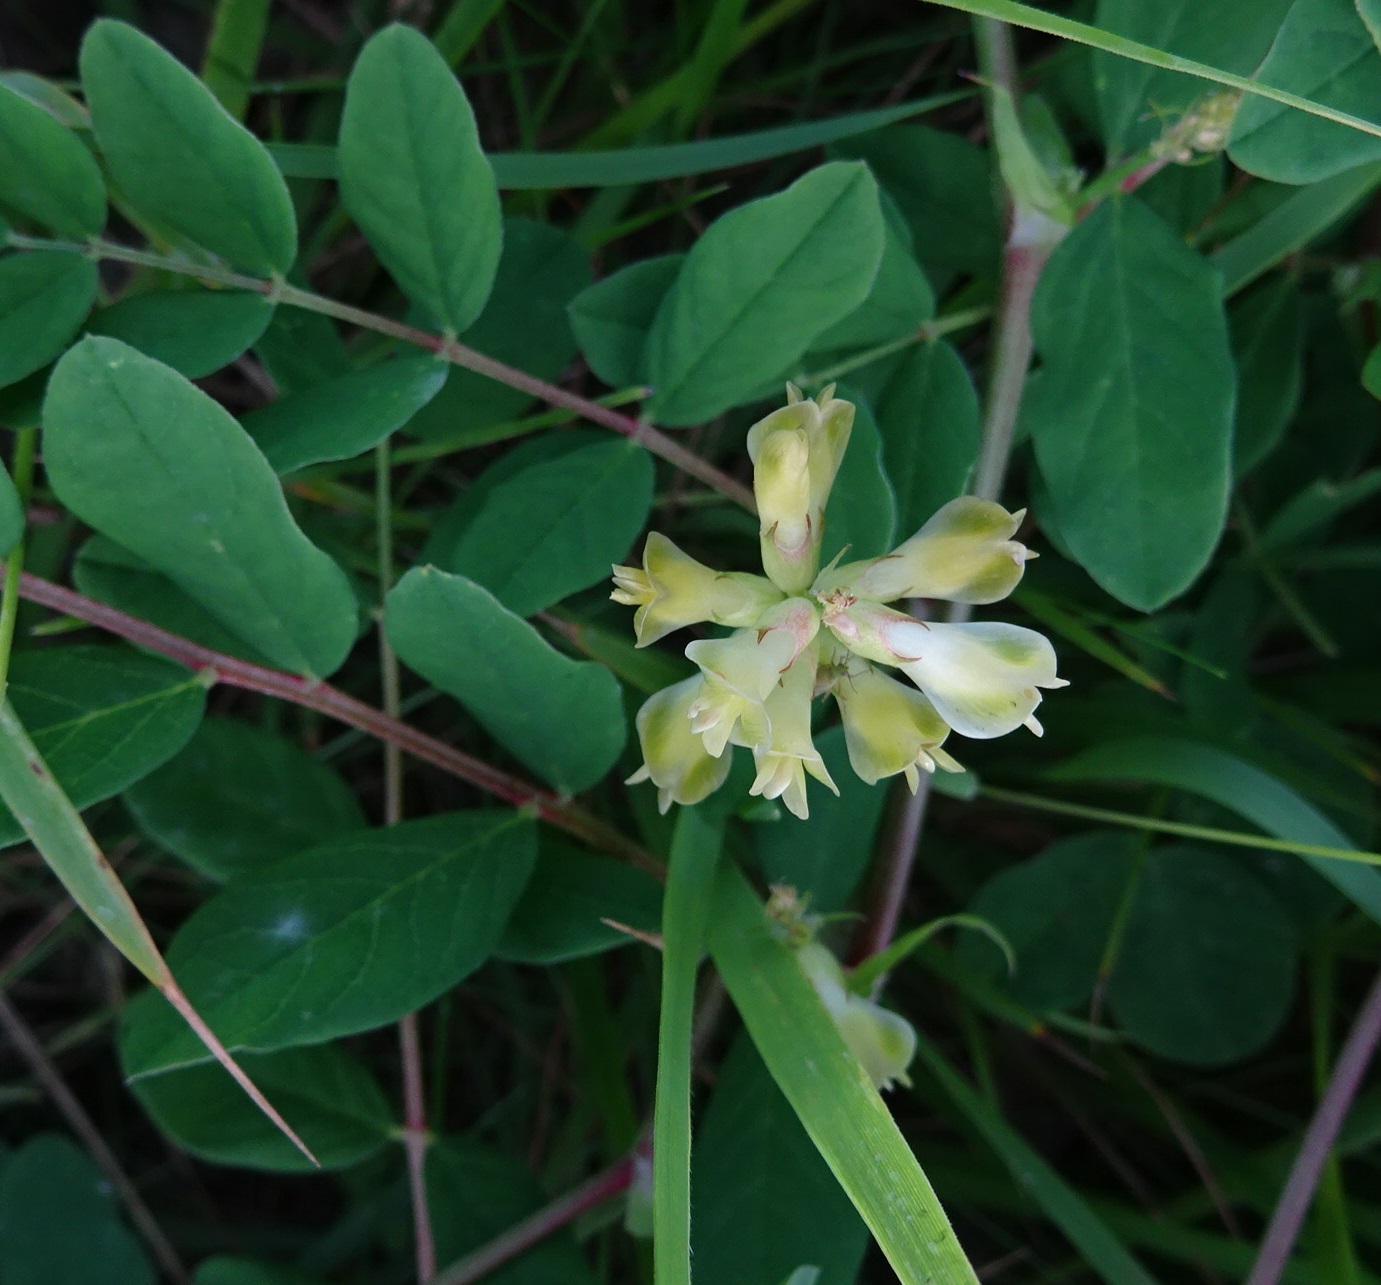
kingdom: Plantae
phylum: Tracheophyta
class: Magnoliopsida
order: Fabales
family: Fabaceae
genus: Astragalus
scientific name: Astragalus glycyphyllos
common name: Wild liquorice
